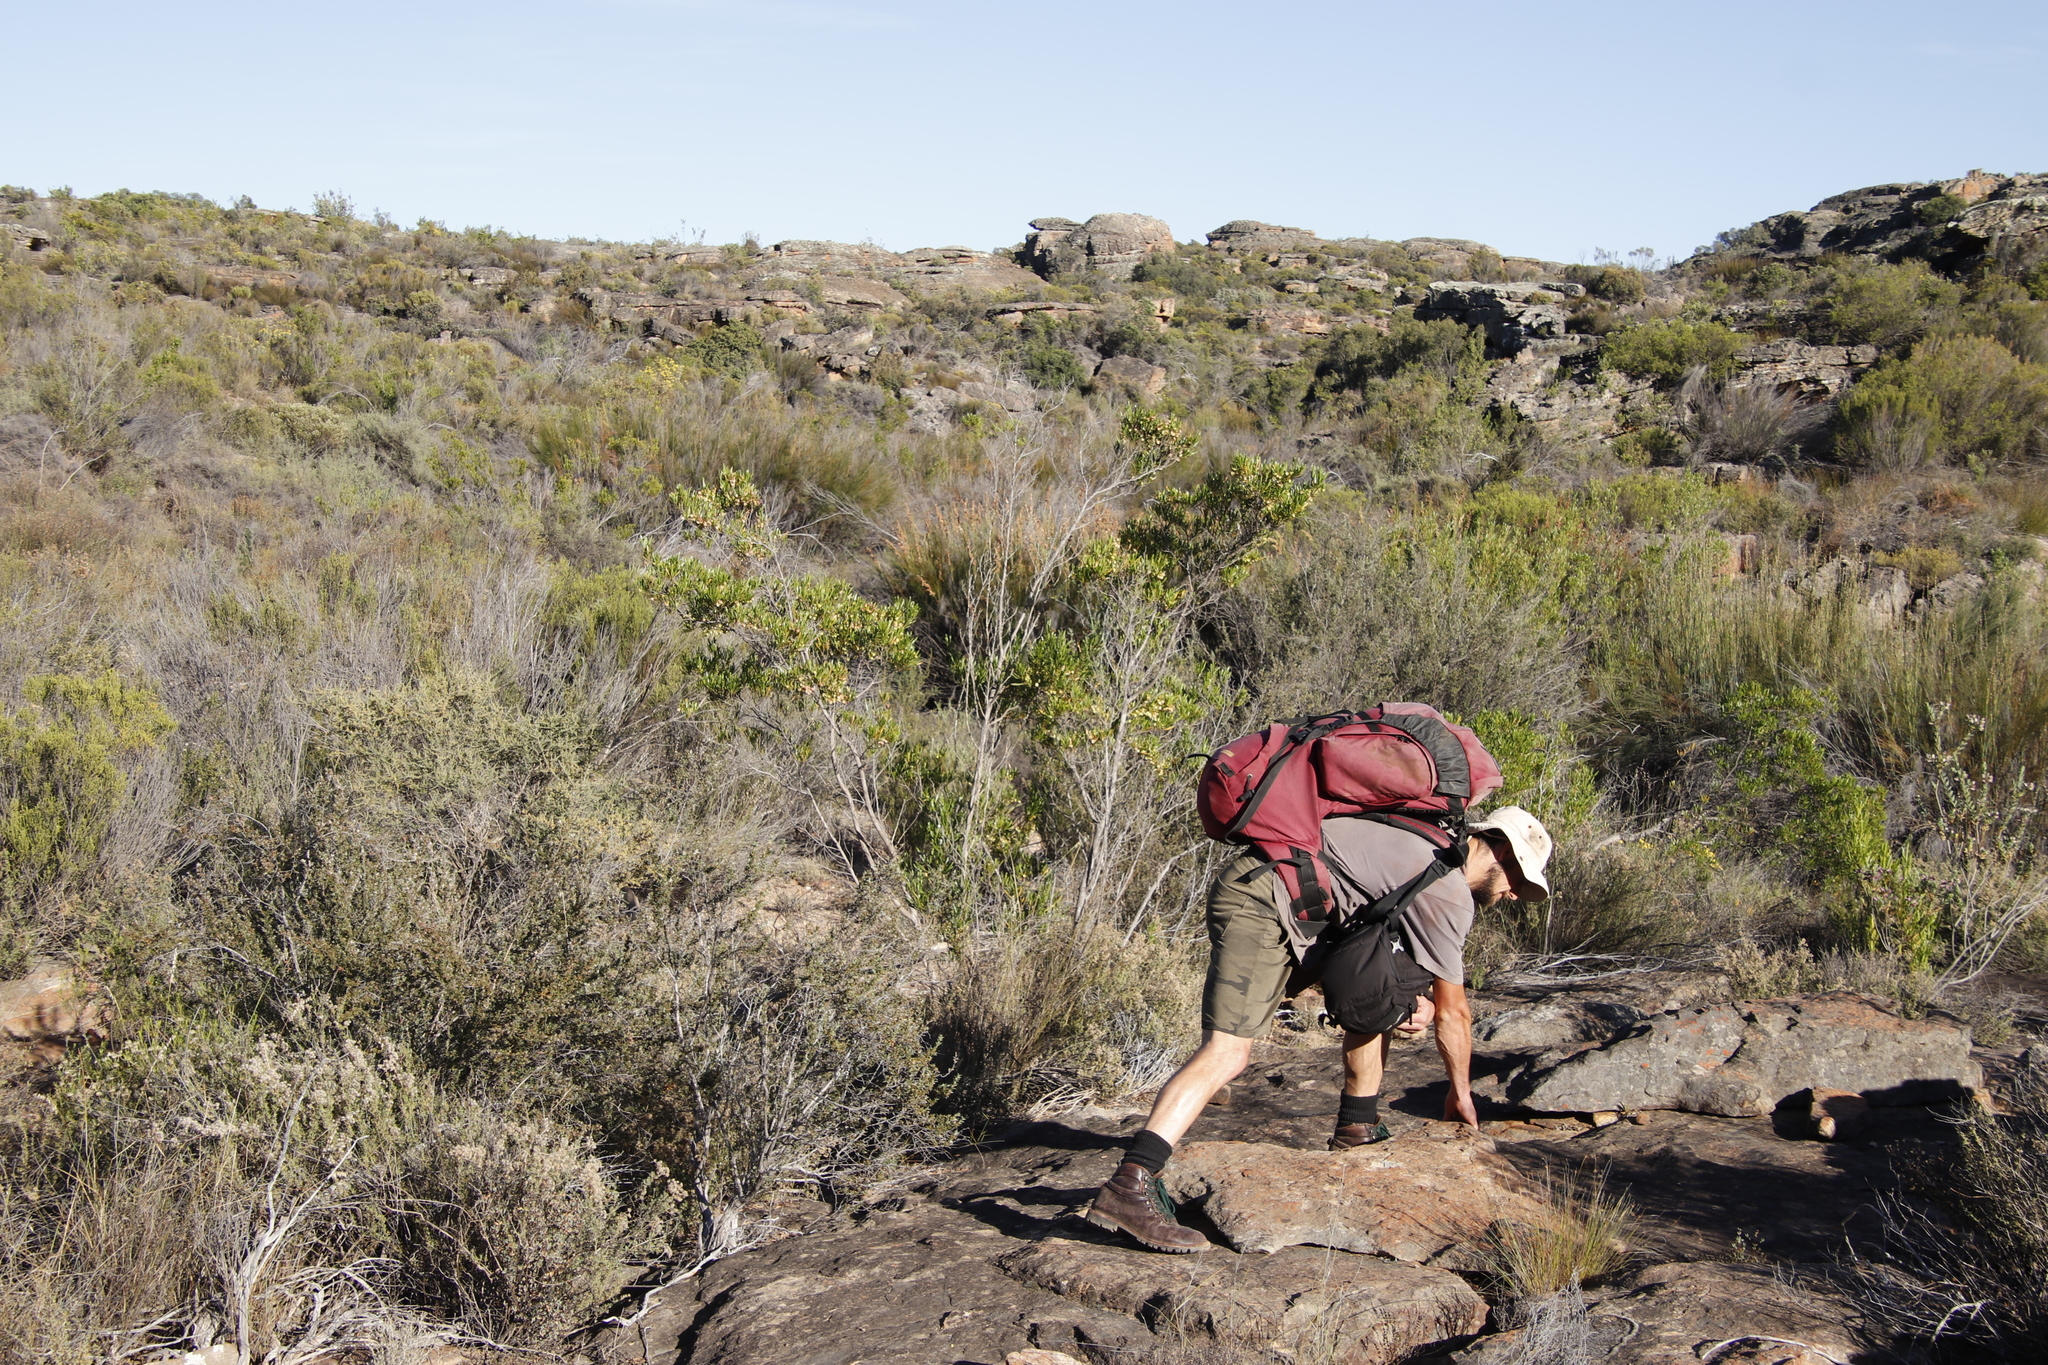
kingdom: Plantae
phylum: Tracheophyta
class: Magnoliopsida
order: Sapindales
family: Sapindaceae
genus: Dodonaea
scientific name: Dodonaea viscosa
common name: Hopbush
